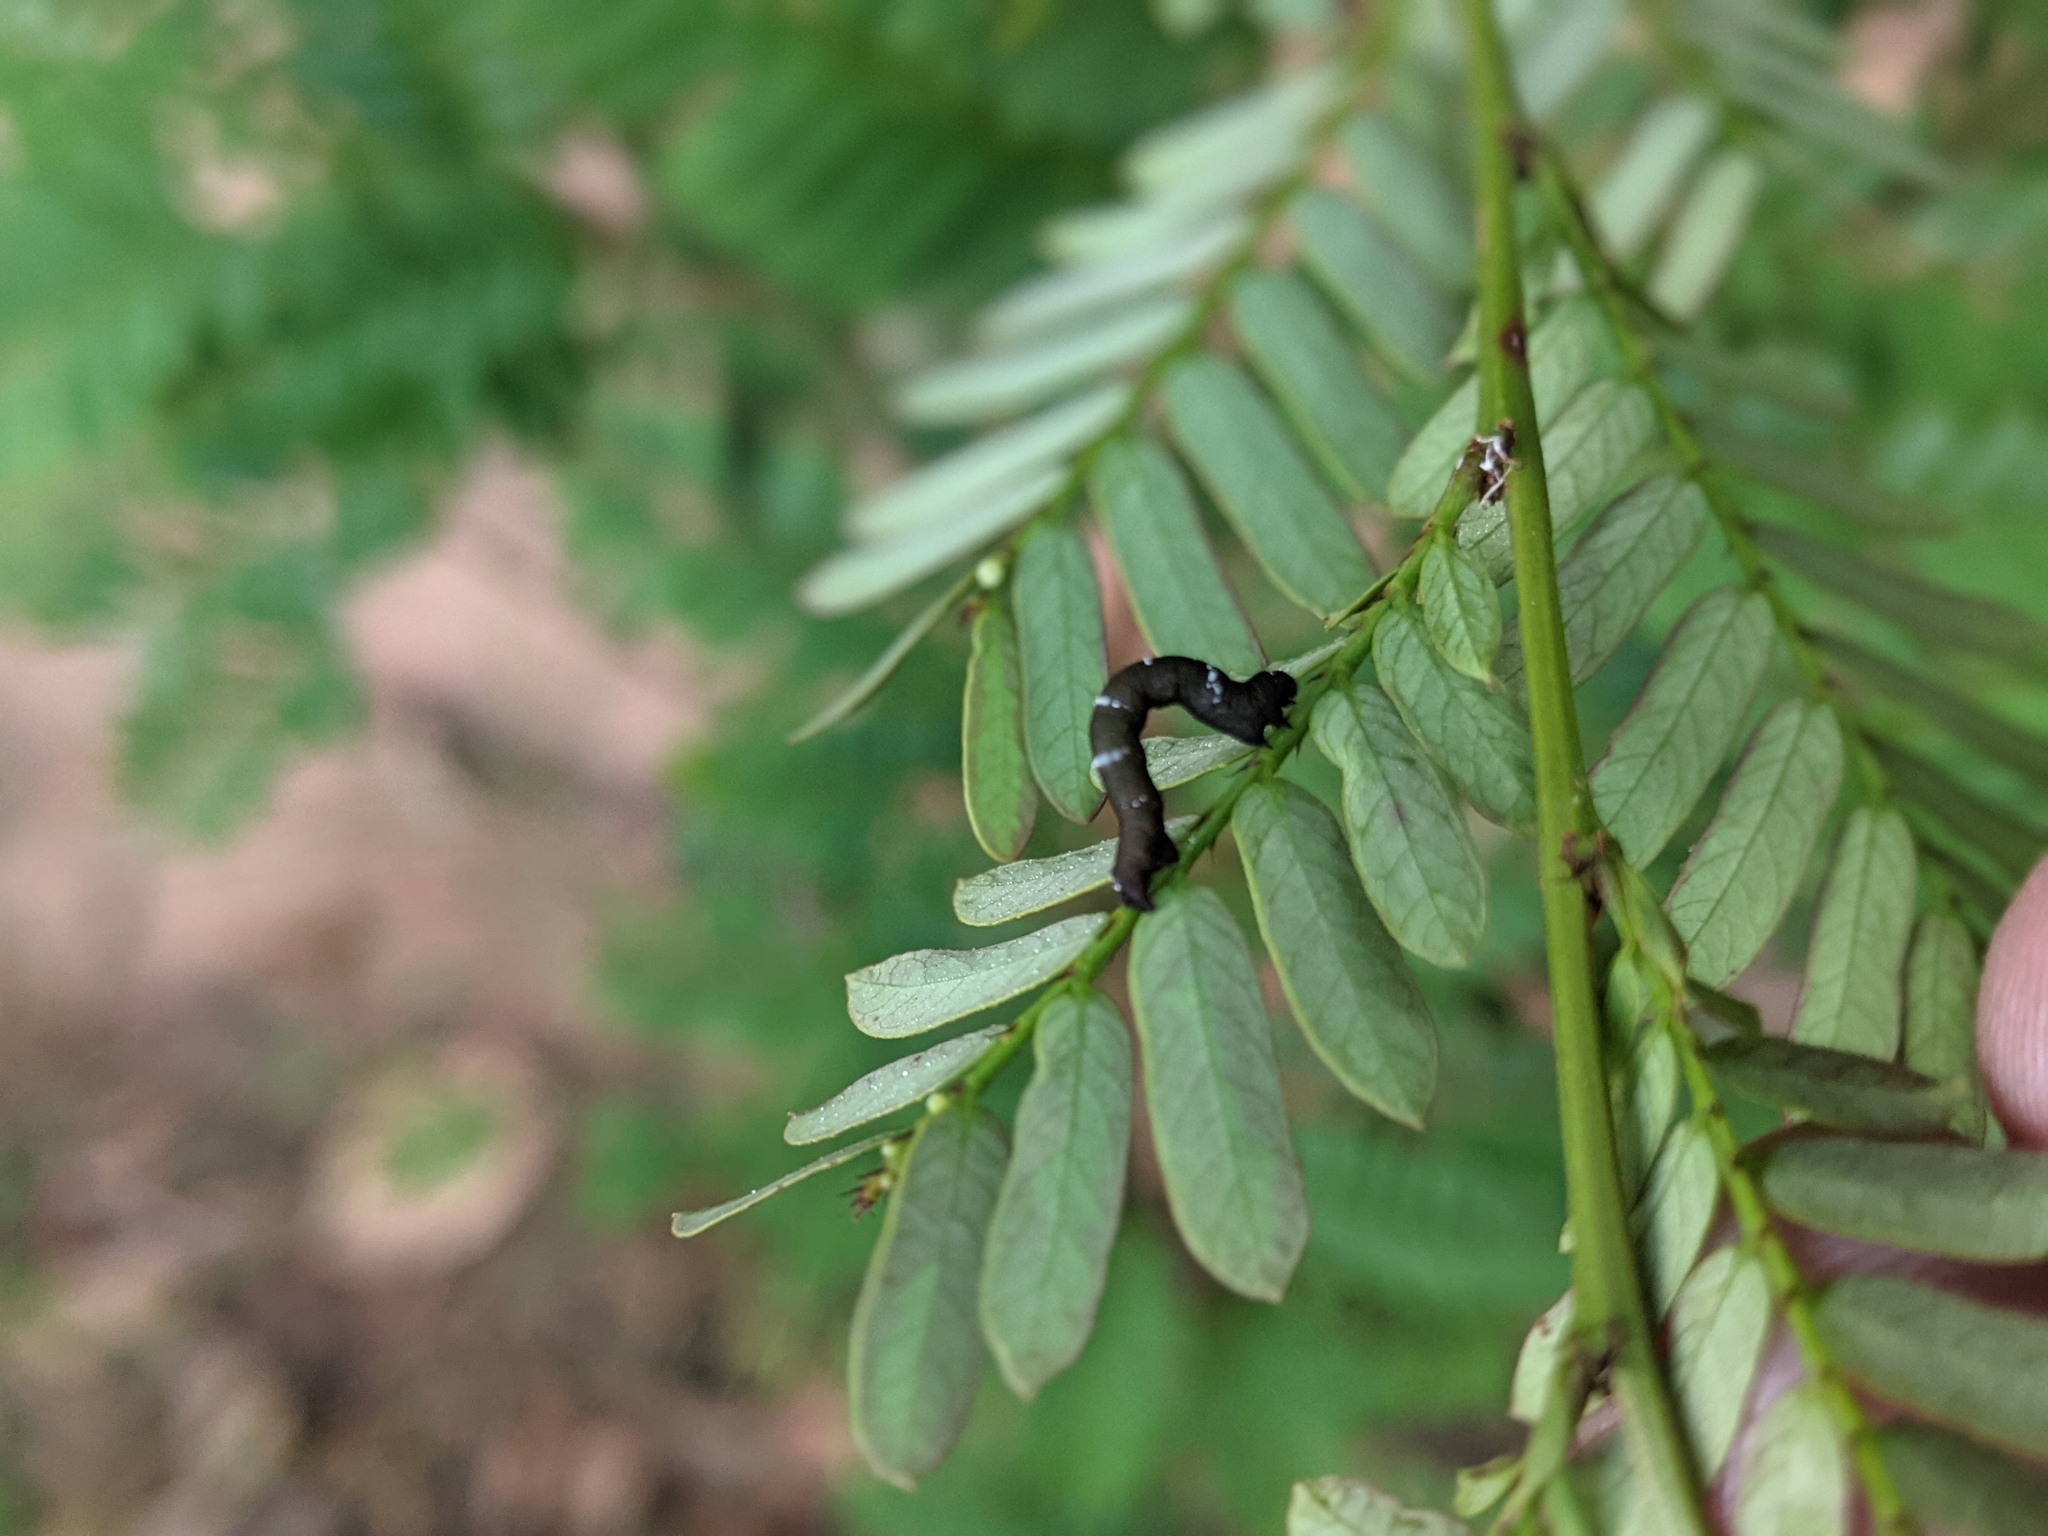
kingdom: Animalia
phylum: Arthropoda
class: Insecta
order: Lepidoptera
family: Geometridae
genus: Hyposidra
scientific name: Hyposidra talaca
